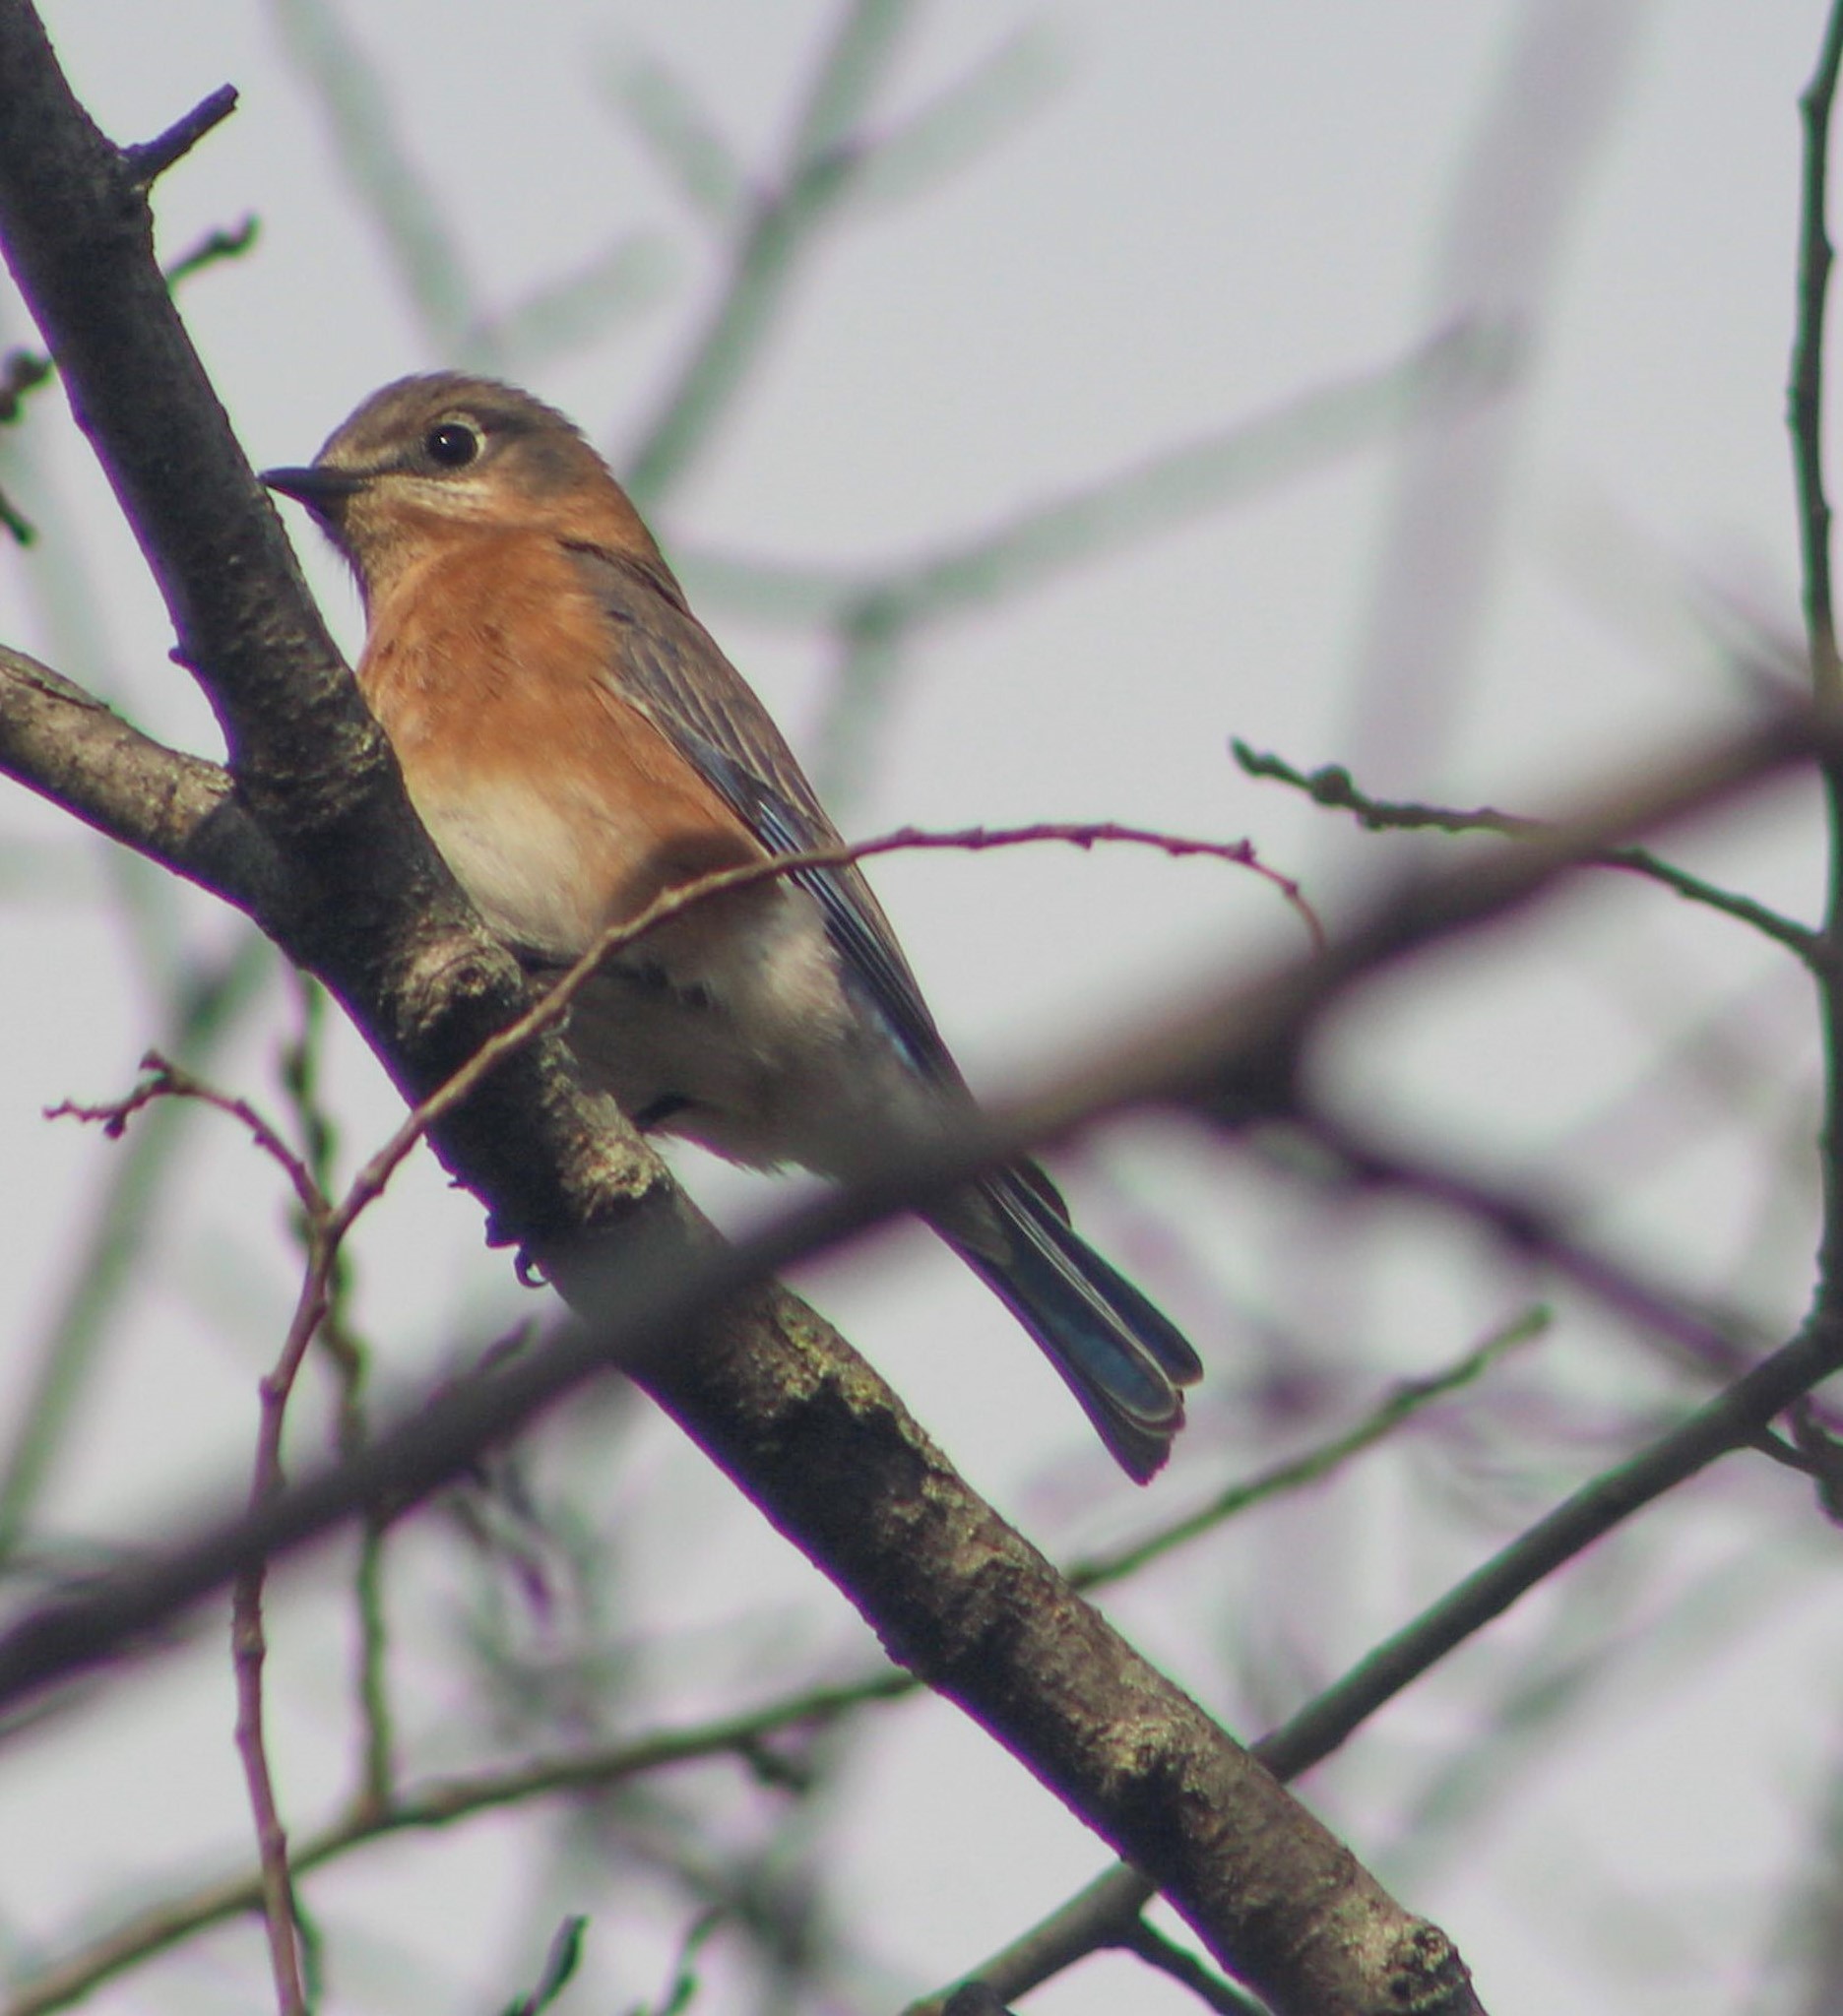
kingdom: Animalia
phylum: Chordata
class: Aves
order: Passeriformes
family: Turdidae
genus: Sialia
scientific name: Sialia sialis
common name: Eastern bluebird
